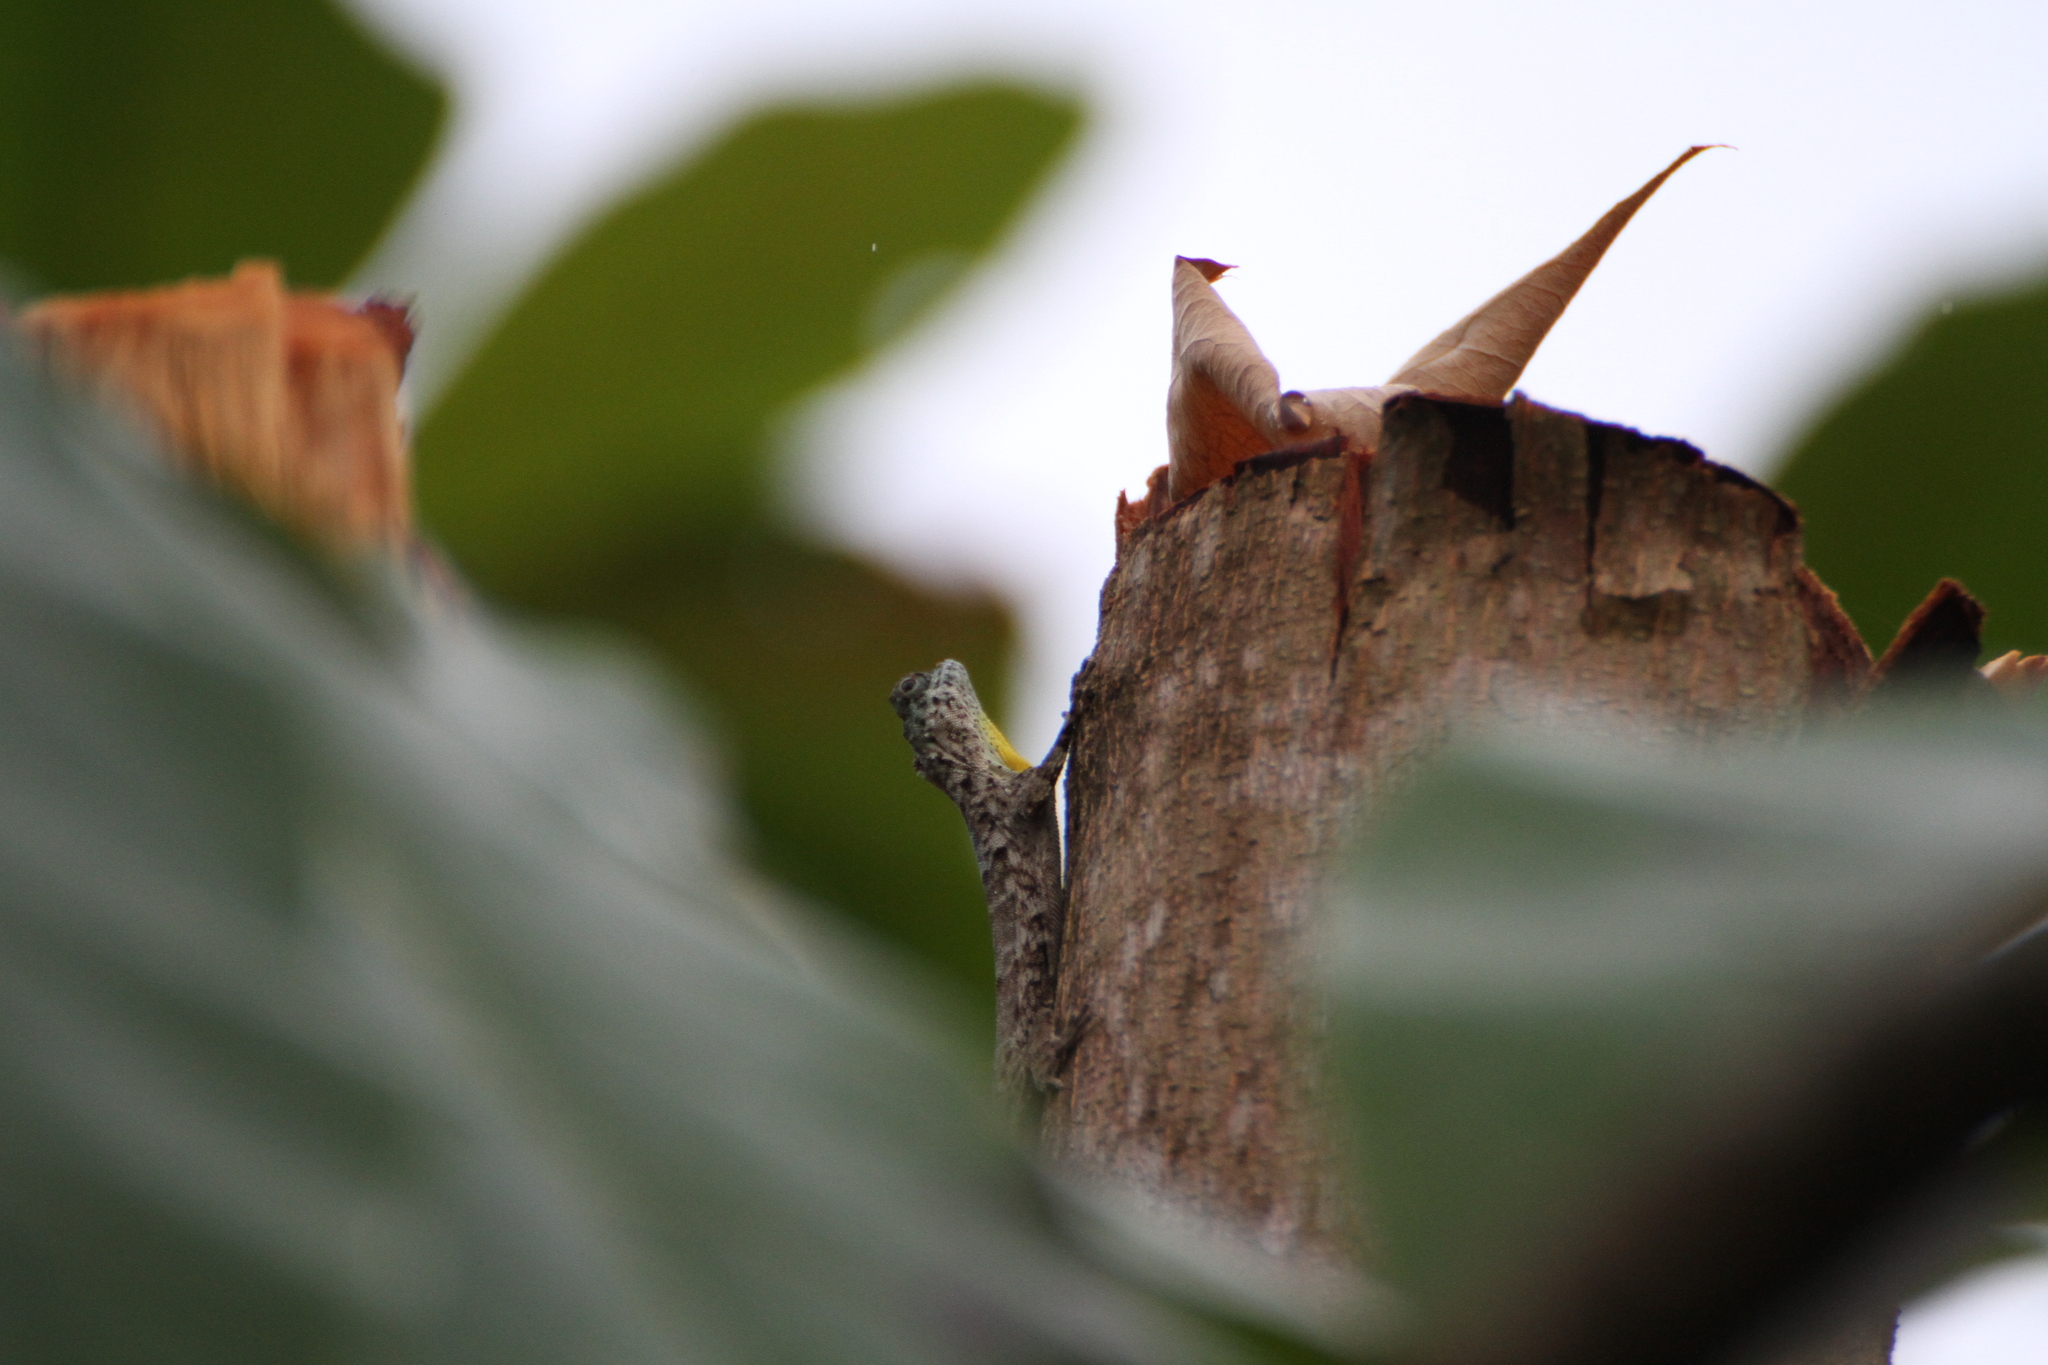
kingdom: Animalia
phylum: Chordata
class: Squamata
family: Agamidae
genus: Draco
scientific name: Draco sumatranus
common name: Common gliding lizard
